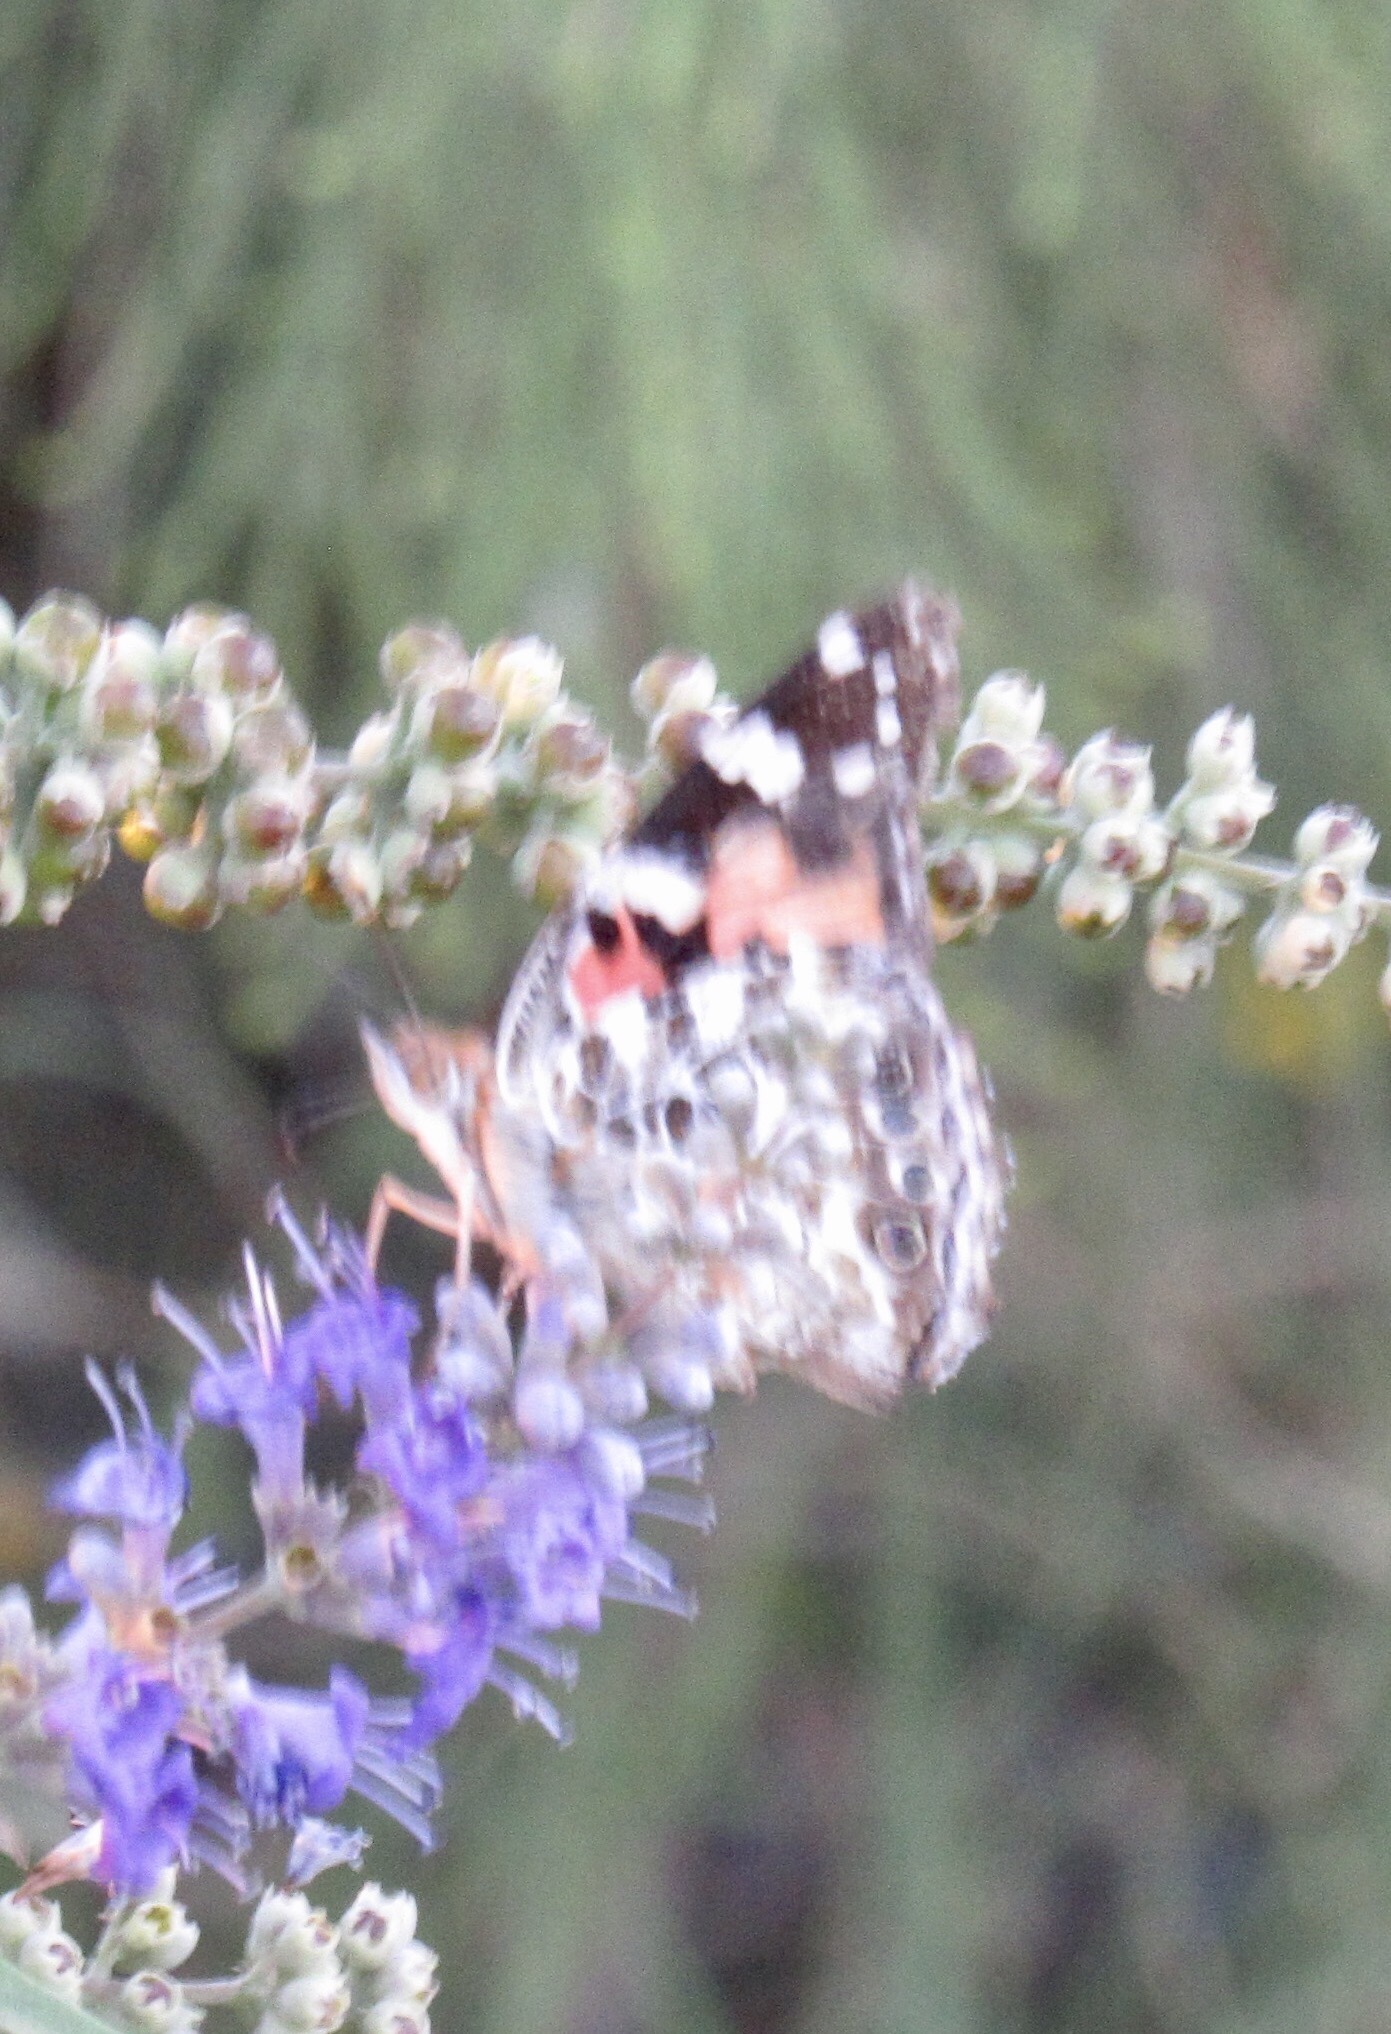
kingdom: Animalia
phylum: Arthropoda
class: Insecta
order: Lepidoptera
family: Nymphalidae
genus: Vanessa
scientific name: Vanessa cardui
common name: Painted lady
